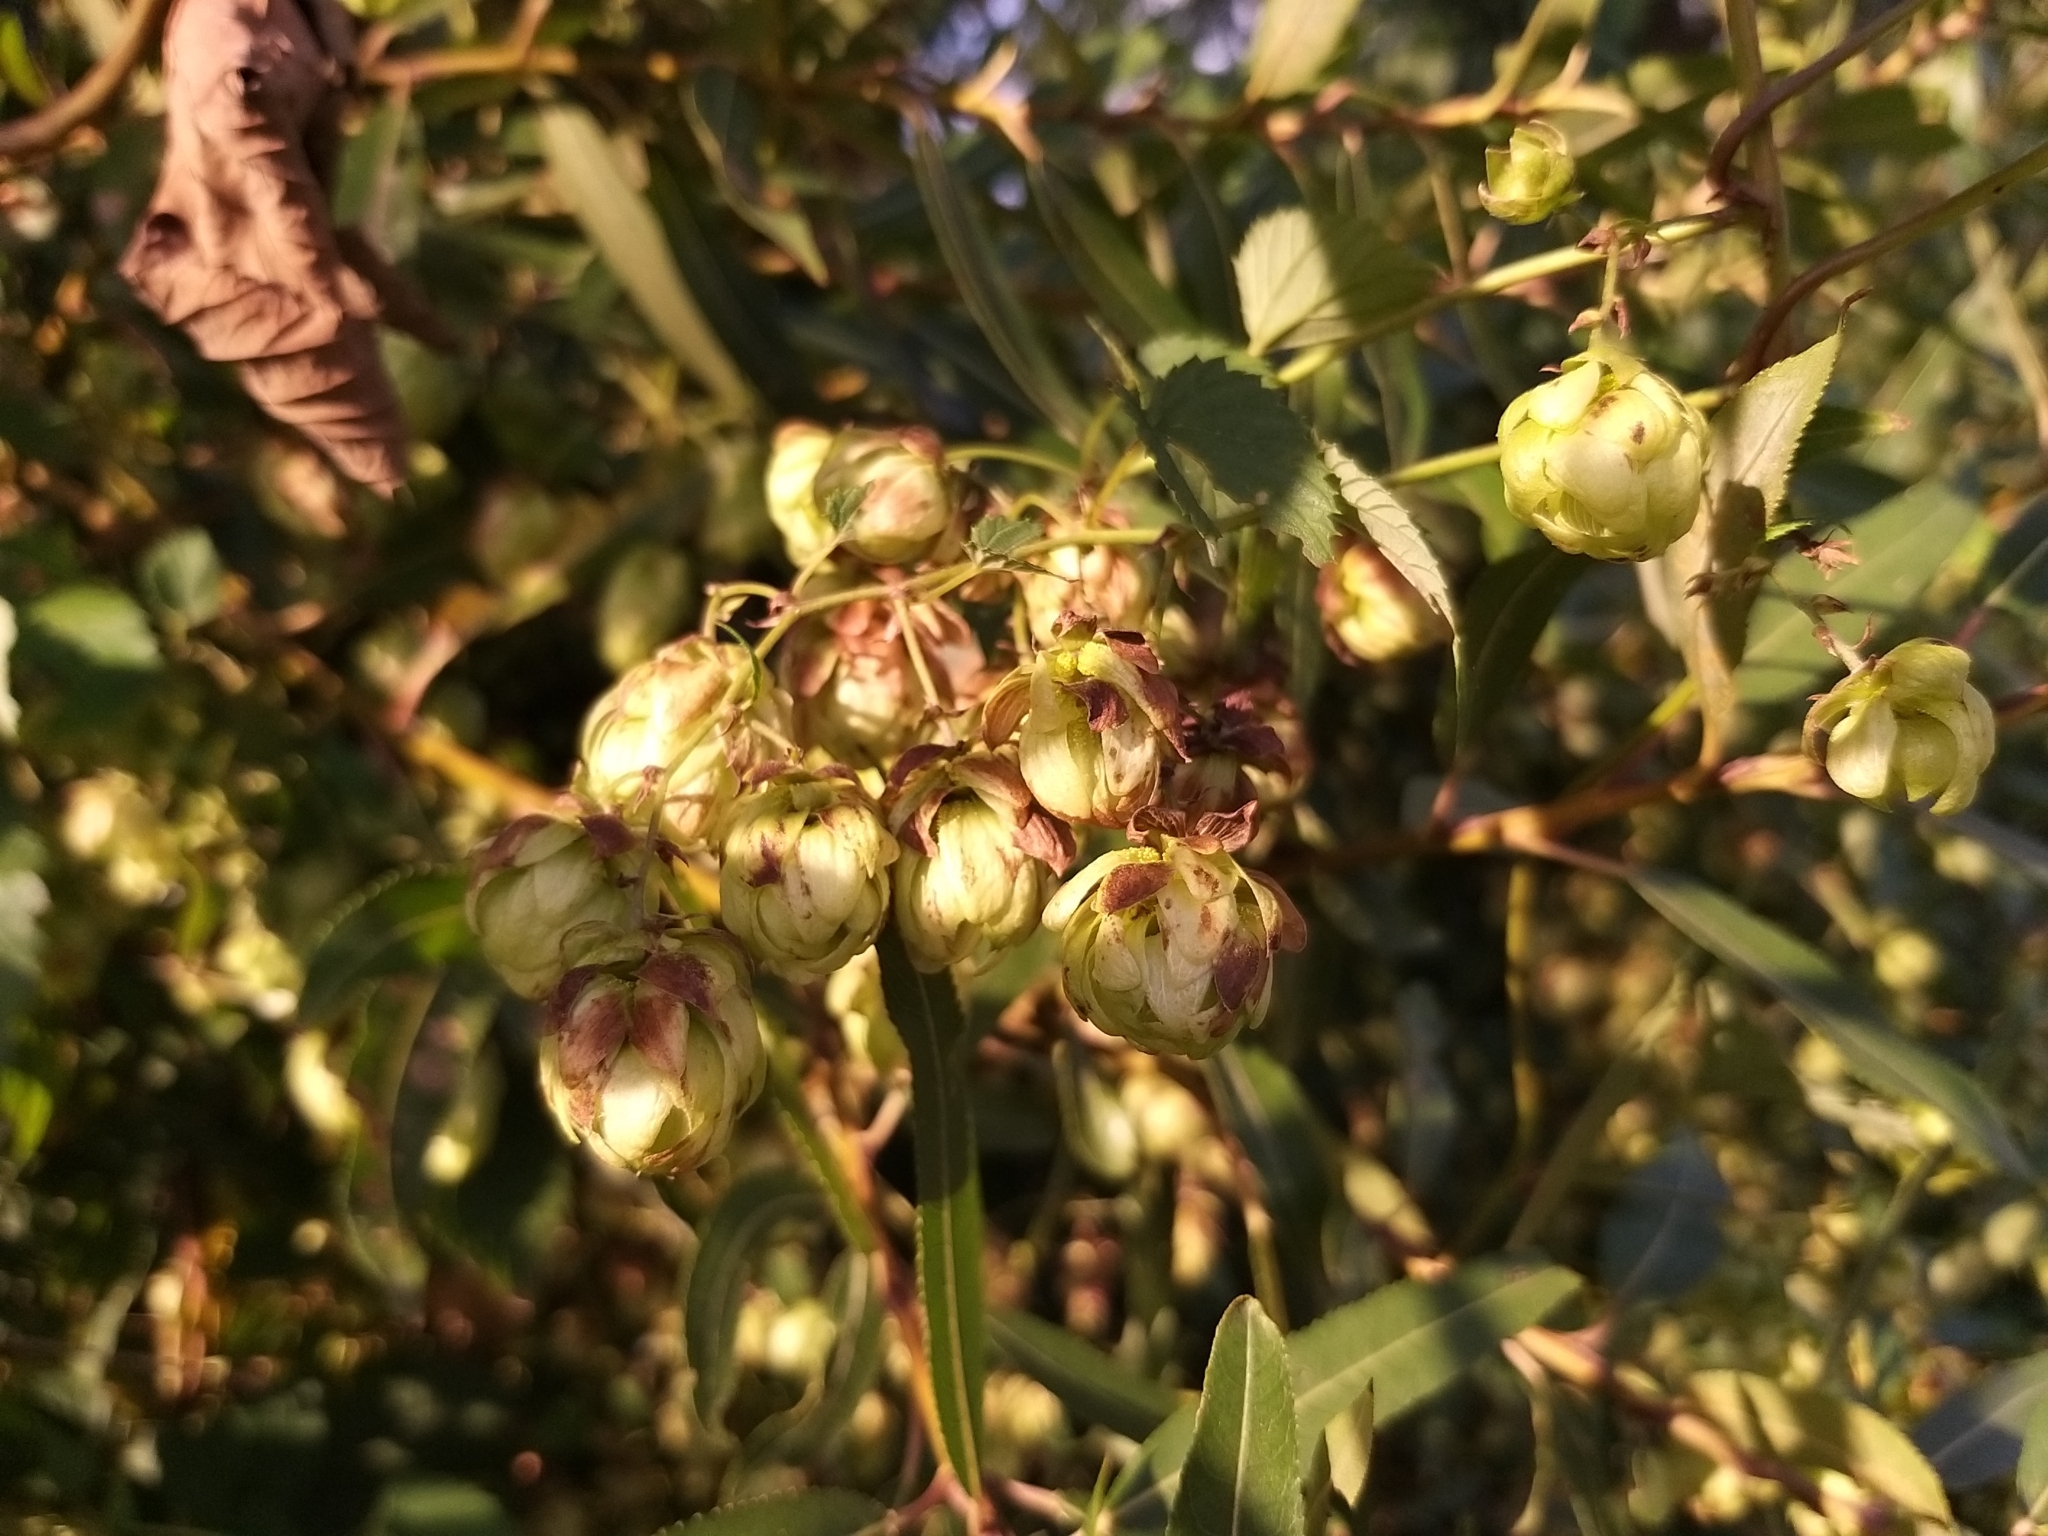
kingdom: Plantae
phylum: Tracheophyta
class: Magnoliopsida
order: Rosales
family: Cannabaceae
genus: Humulus
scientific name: Humulus lupulus
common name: Hop
